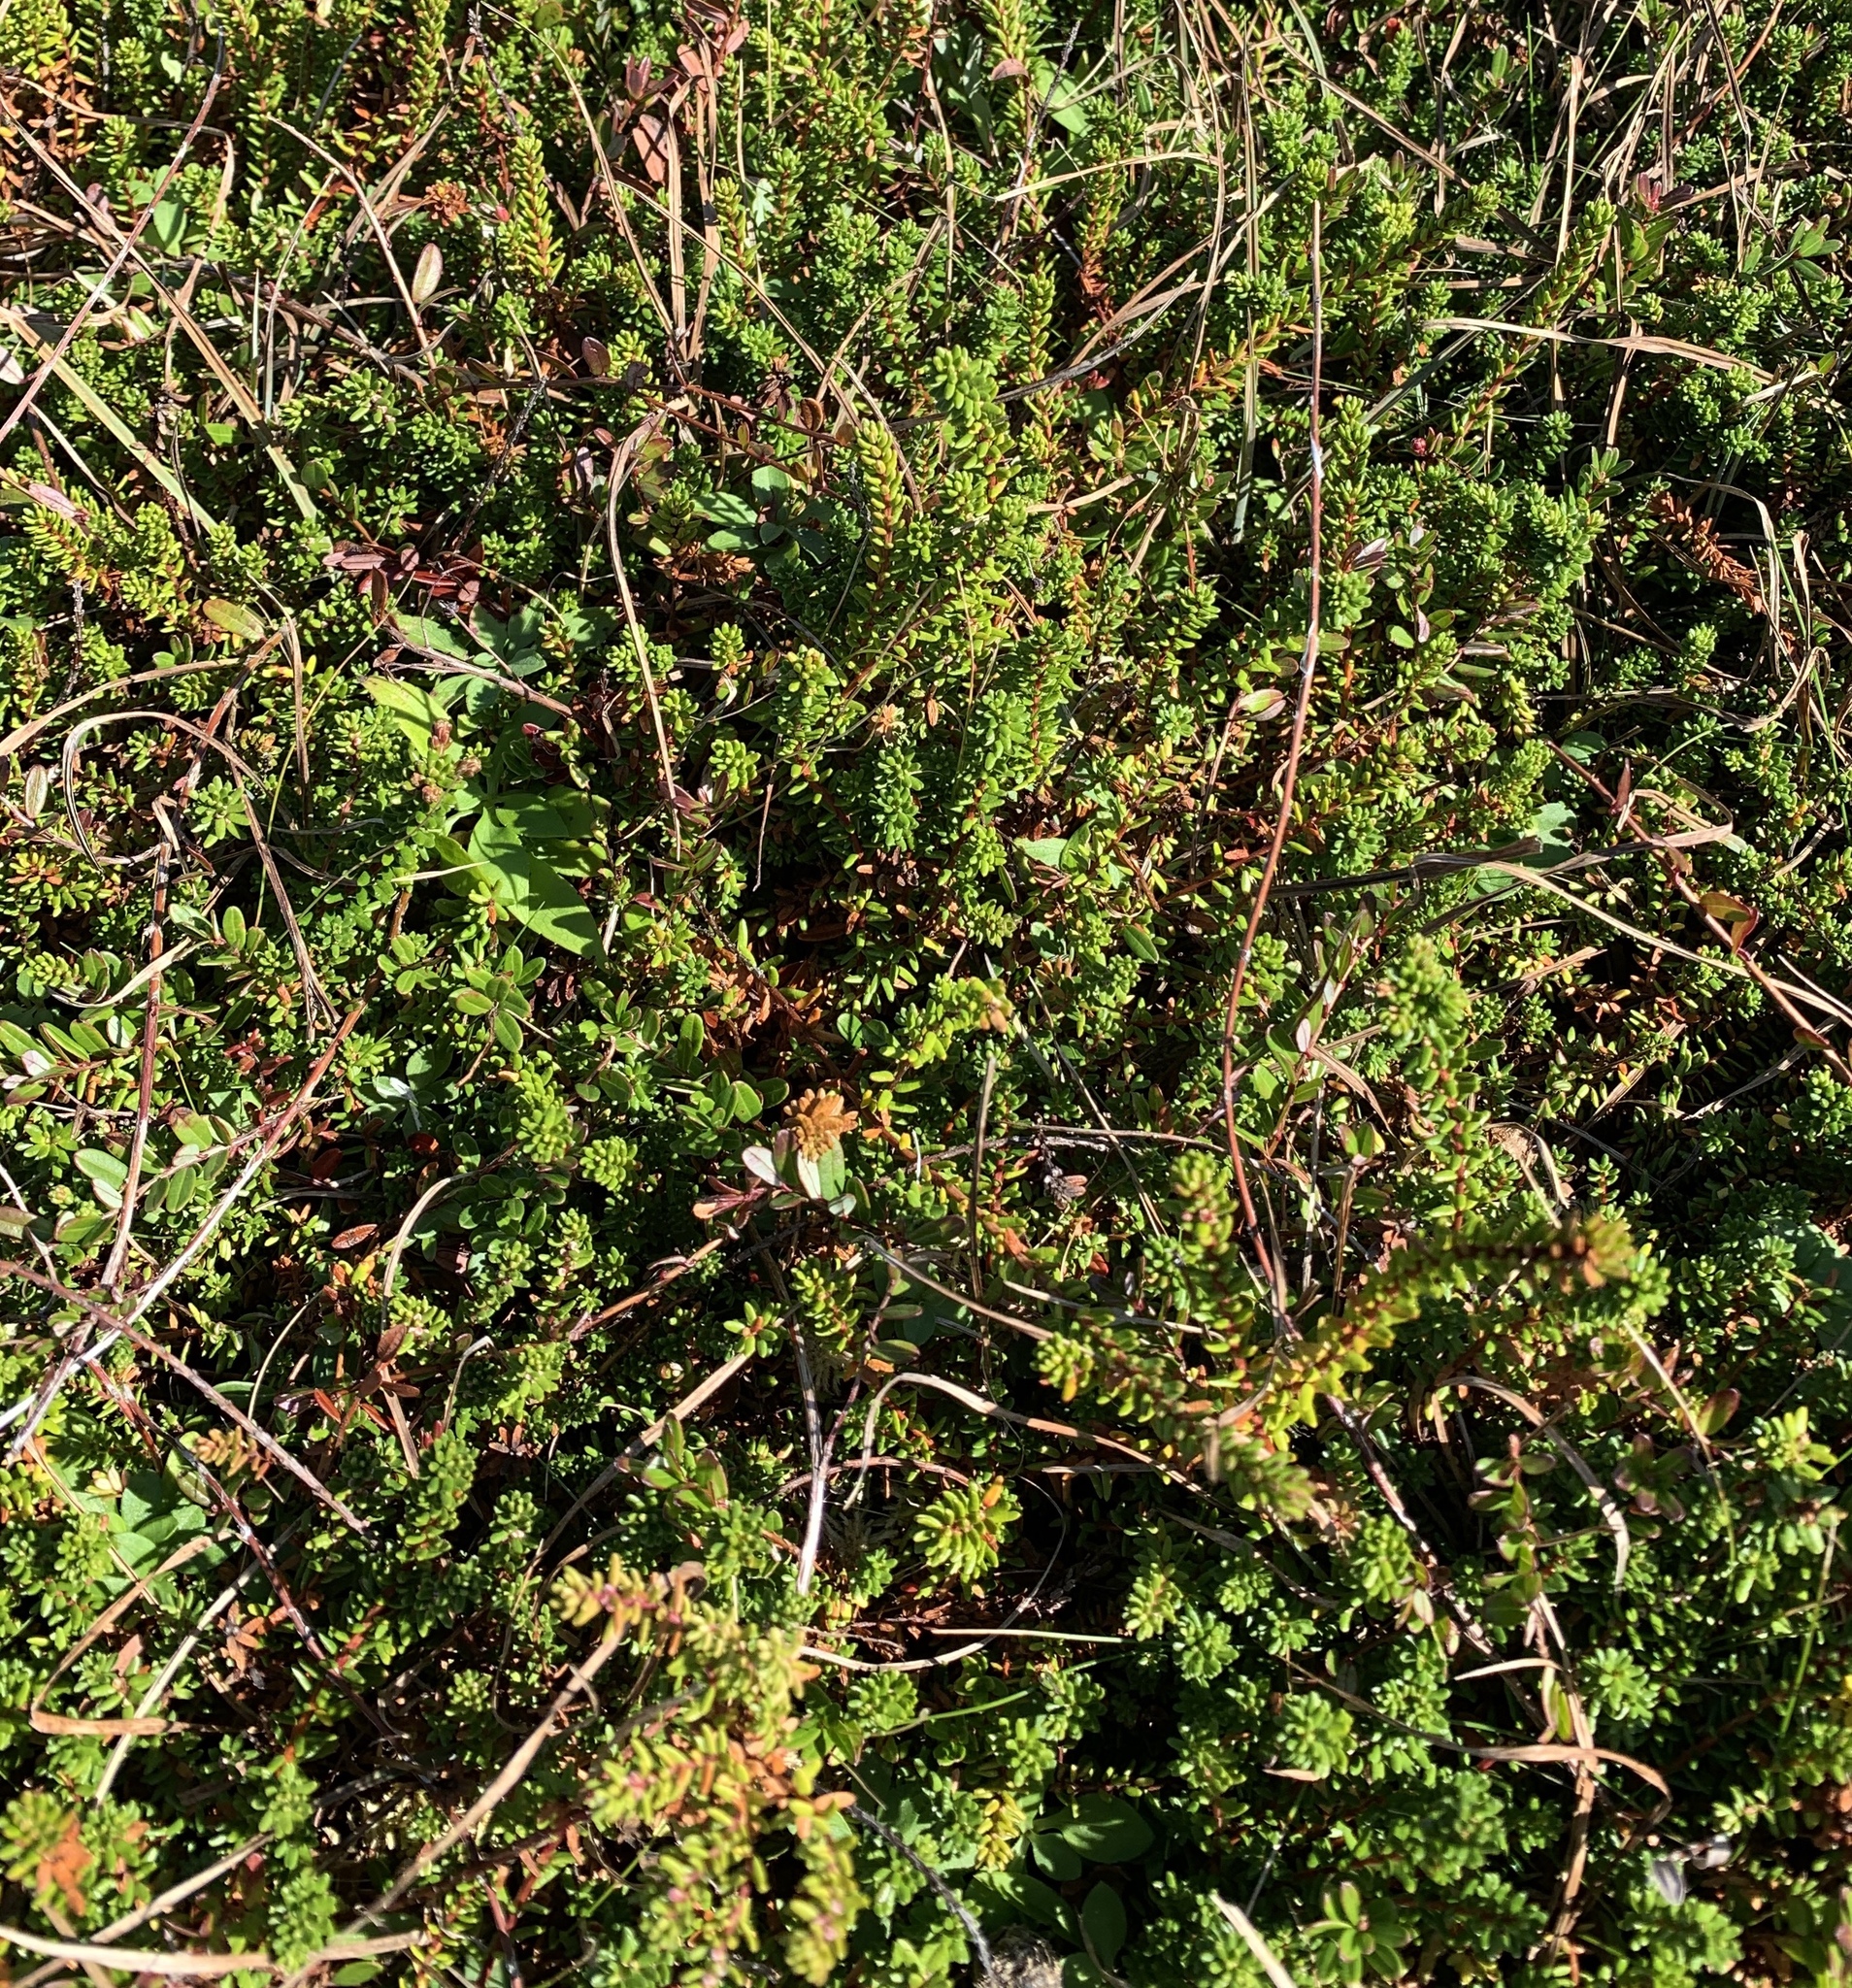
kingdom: Plantae
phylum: Tracheophyta
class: Magnoliopsida
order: Ericales
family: Ericaceae
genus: Empetrum
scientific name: Empetrum nigrum
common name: Black crowberry
